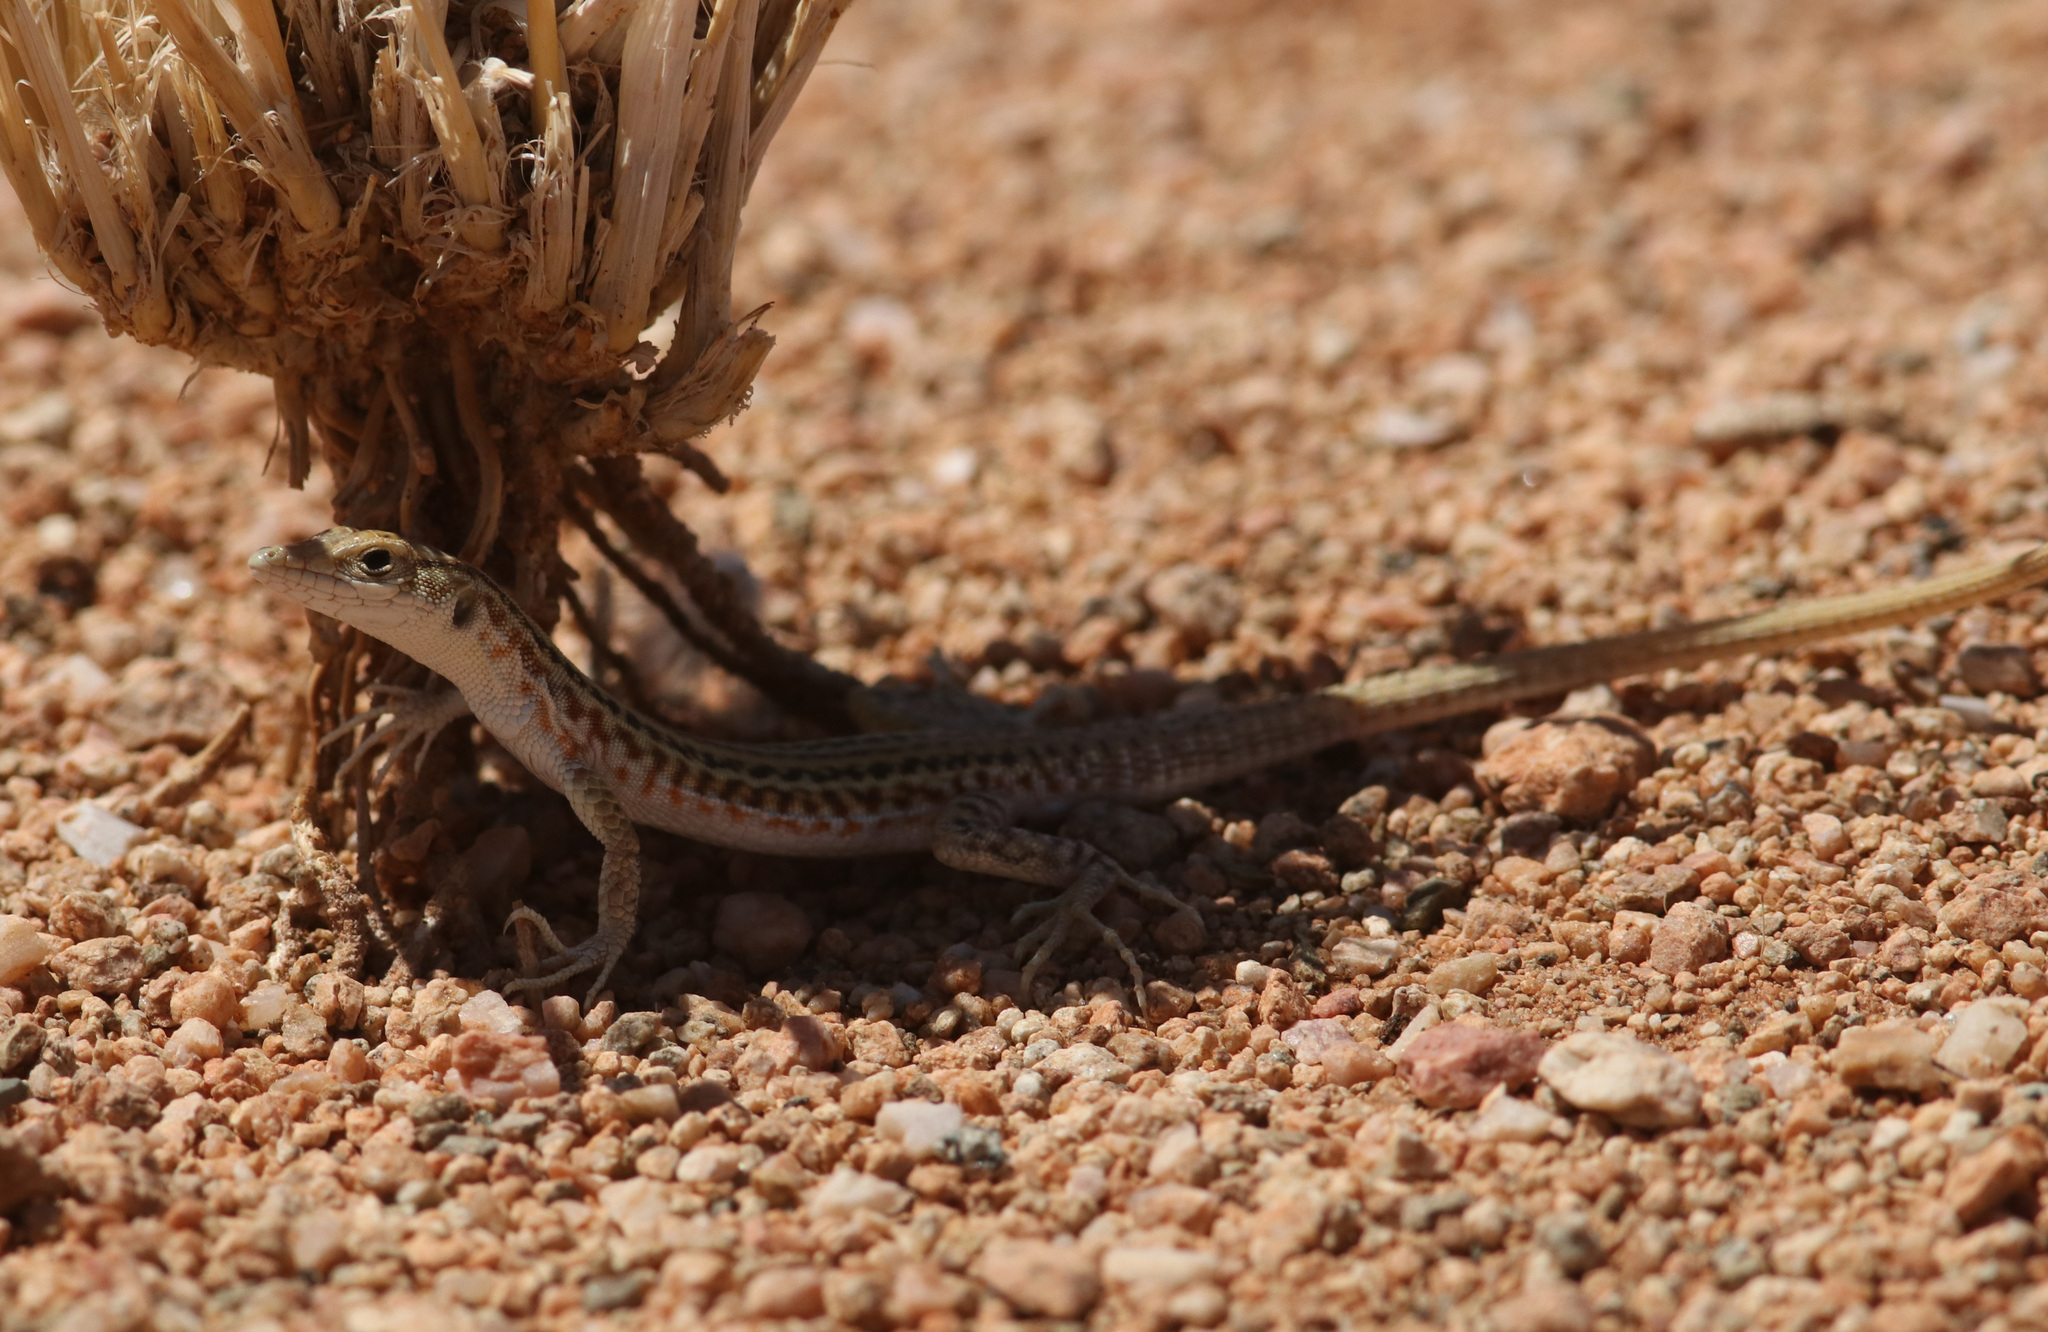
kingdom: Animalia
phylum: Chordata
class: Squamata
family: Lacertidae
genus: Pedioplanis
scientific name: Pedioplanis namaquensis
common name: Namaqua sand lizard
